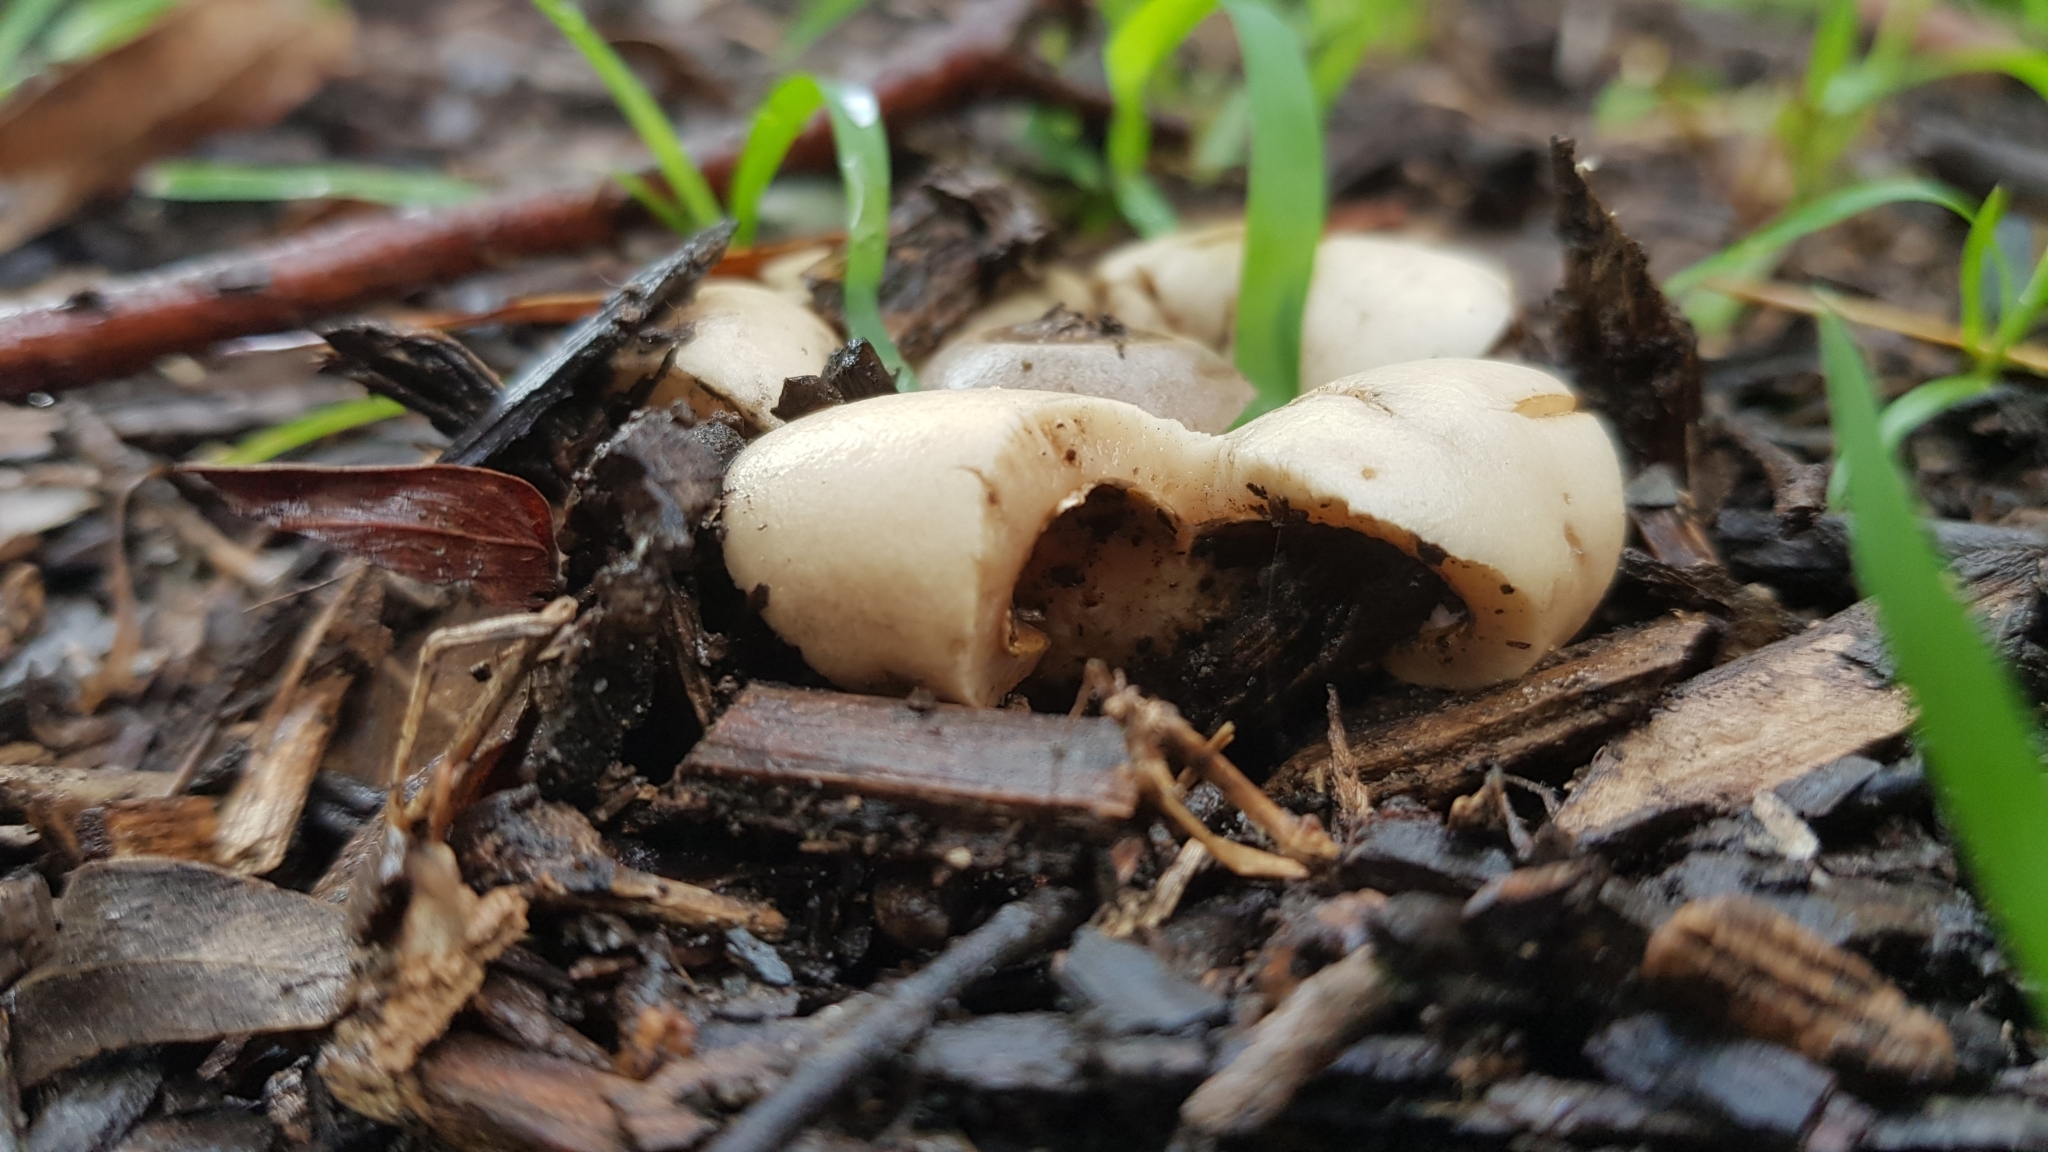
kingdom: Fungi
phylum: Basidiomycota
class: Agaricomycetes
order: Geastrales
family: Geastraceae
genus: Geastrum
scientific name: Geastrum saccatum
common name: Rounded earthstar
